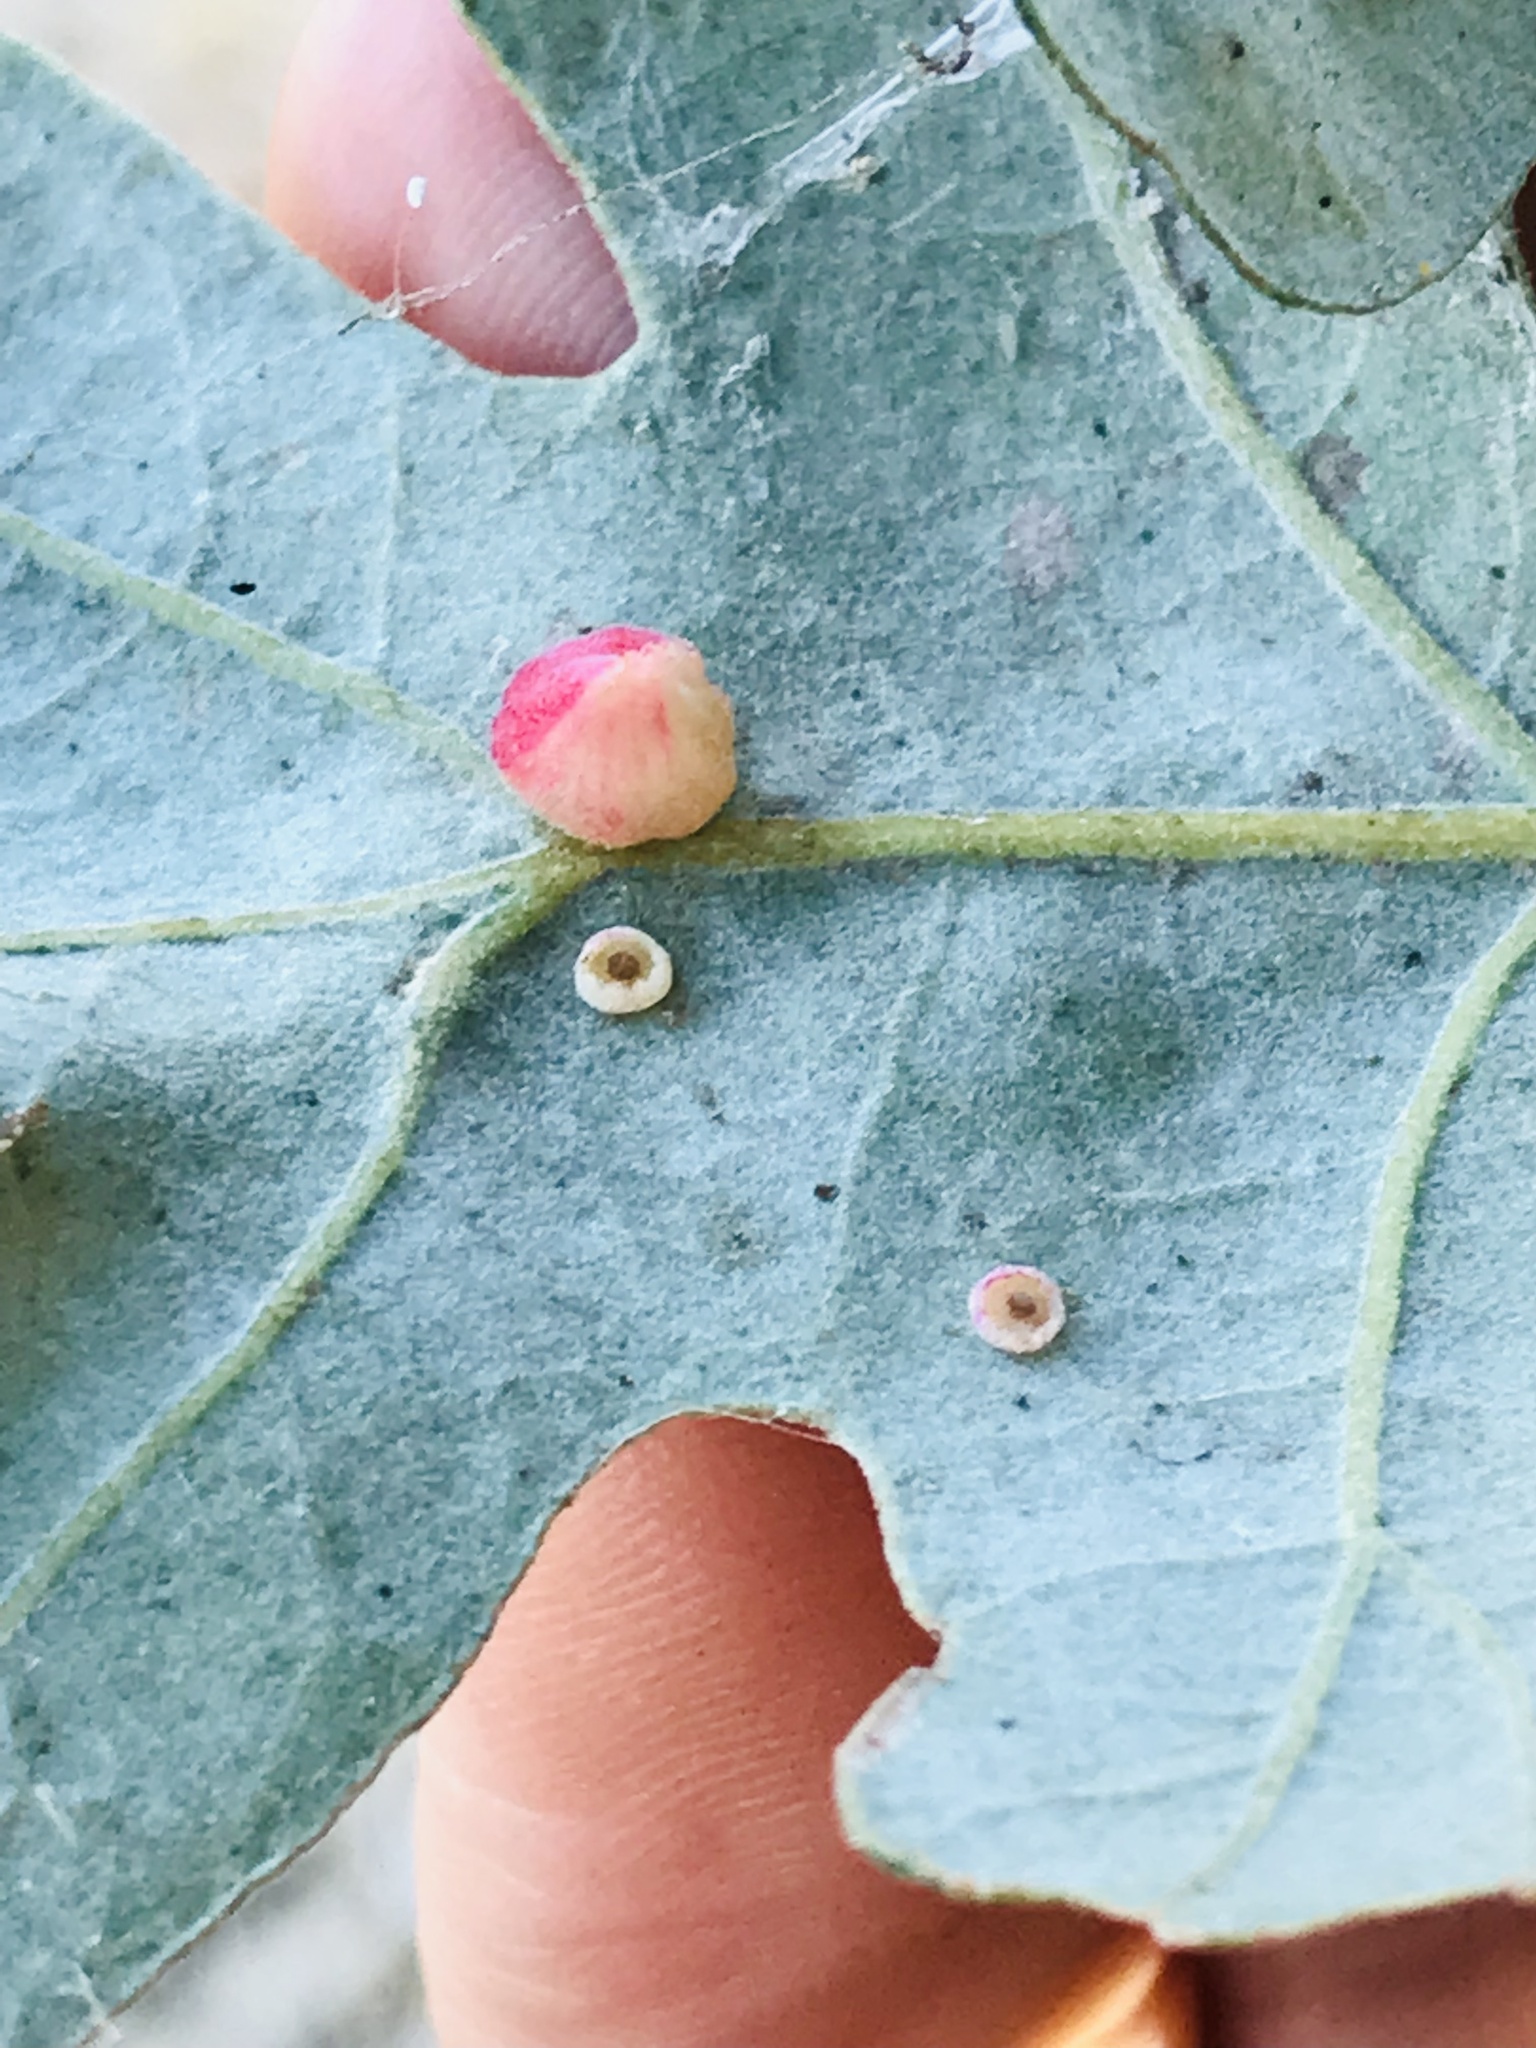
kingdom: Animalia
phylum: Arthropoda
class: Insecta
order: Hymenoptera
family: Cynipidae
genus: Andricus
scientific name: Andricus
